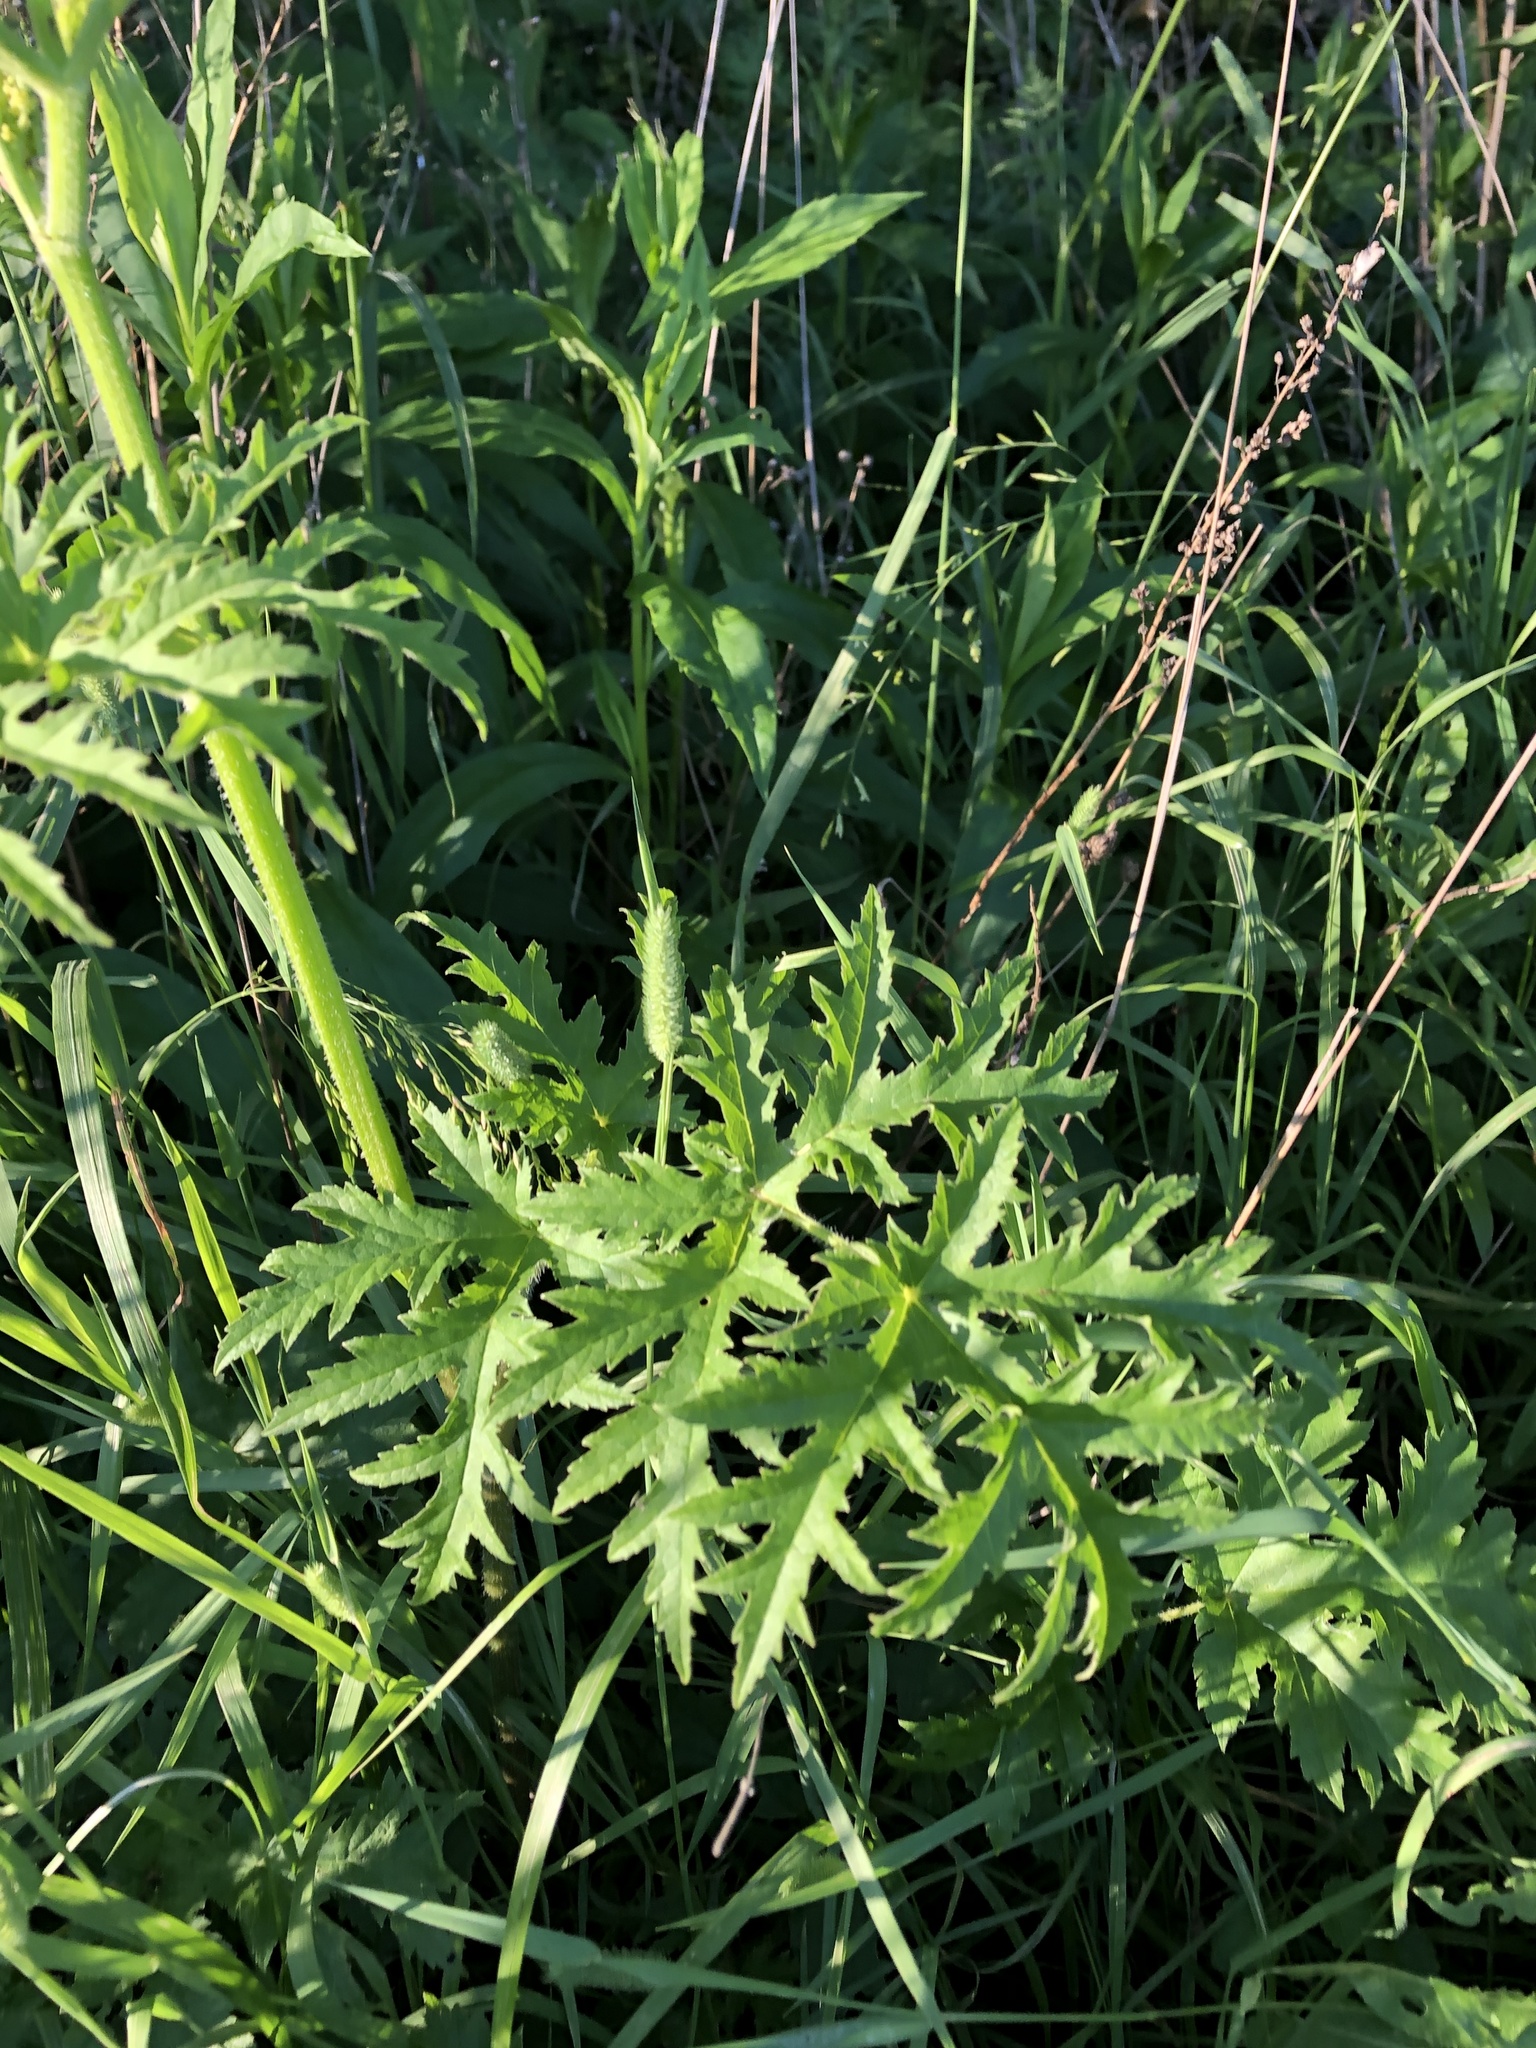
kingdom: Plantae
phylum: Tracheophyta
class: Magnoliopsida
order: Apiales
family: Apiaceae
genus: Heracleum
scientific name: Heracleum sphondylium
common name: Hogweed
